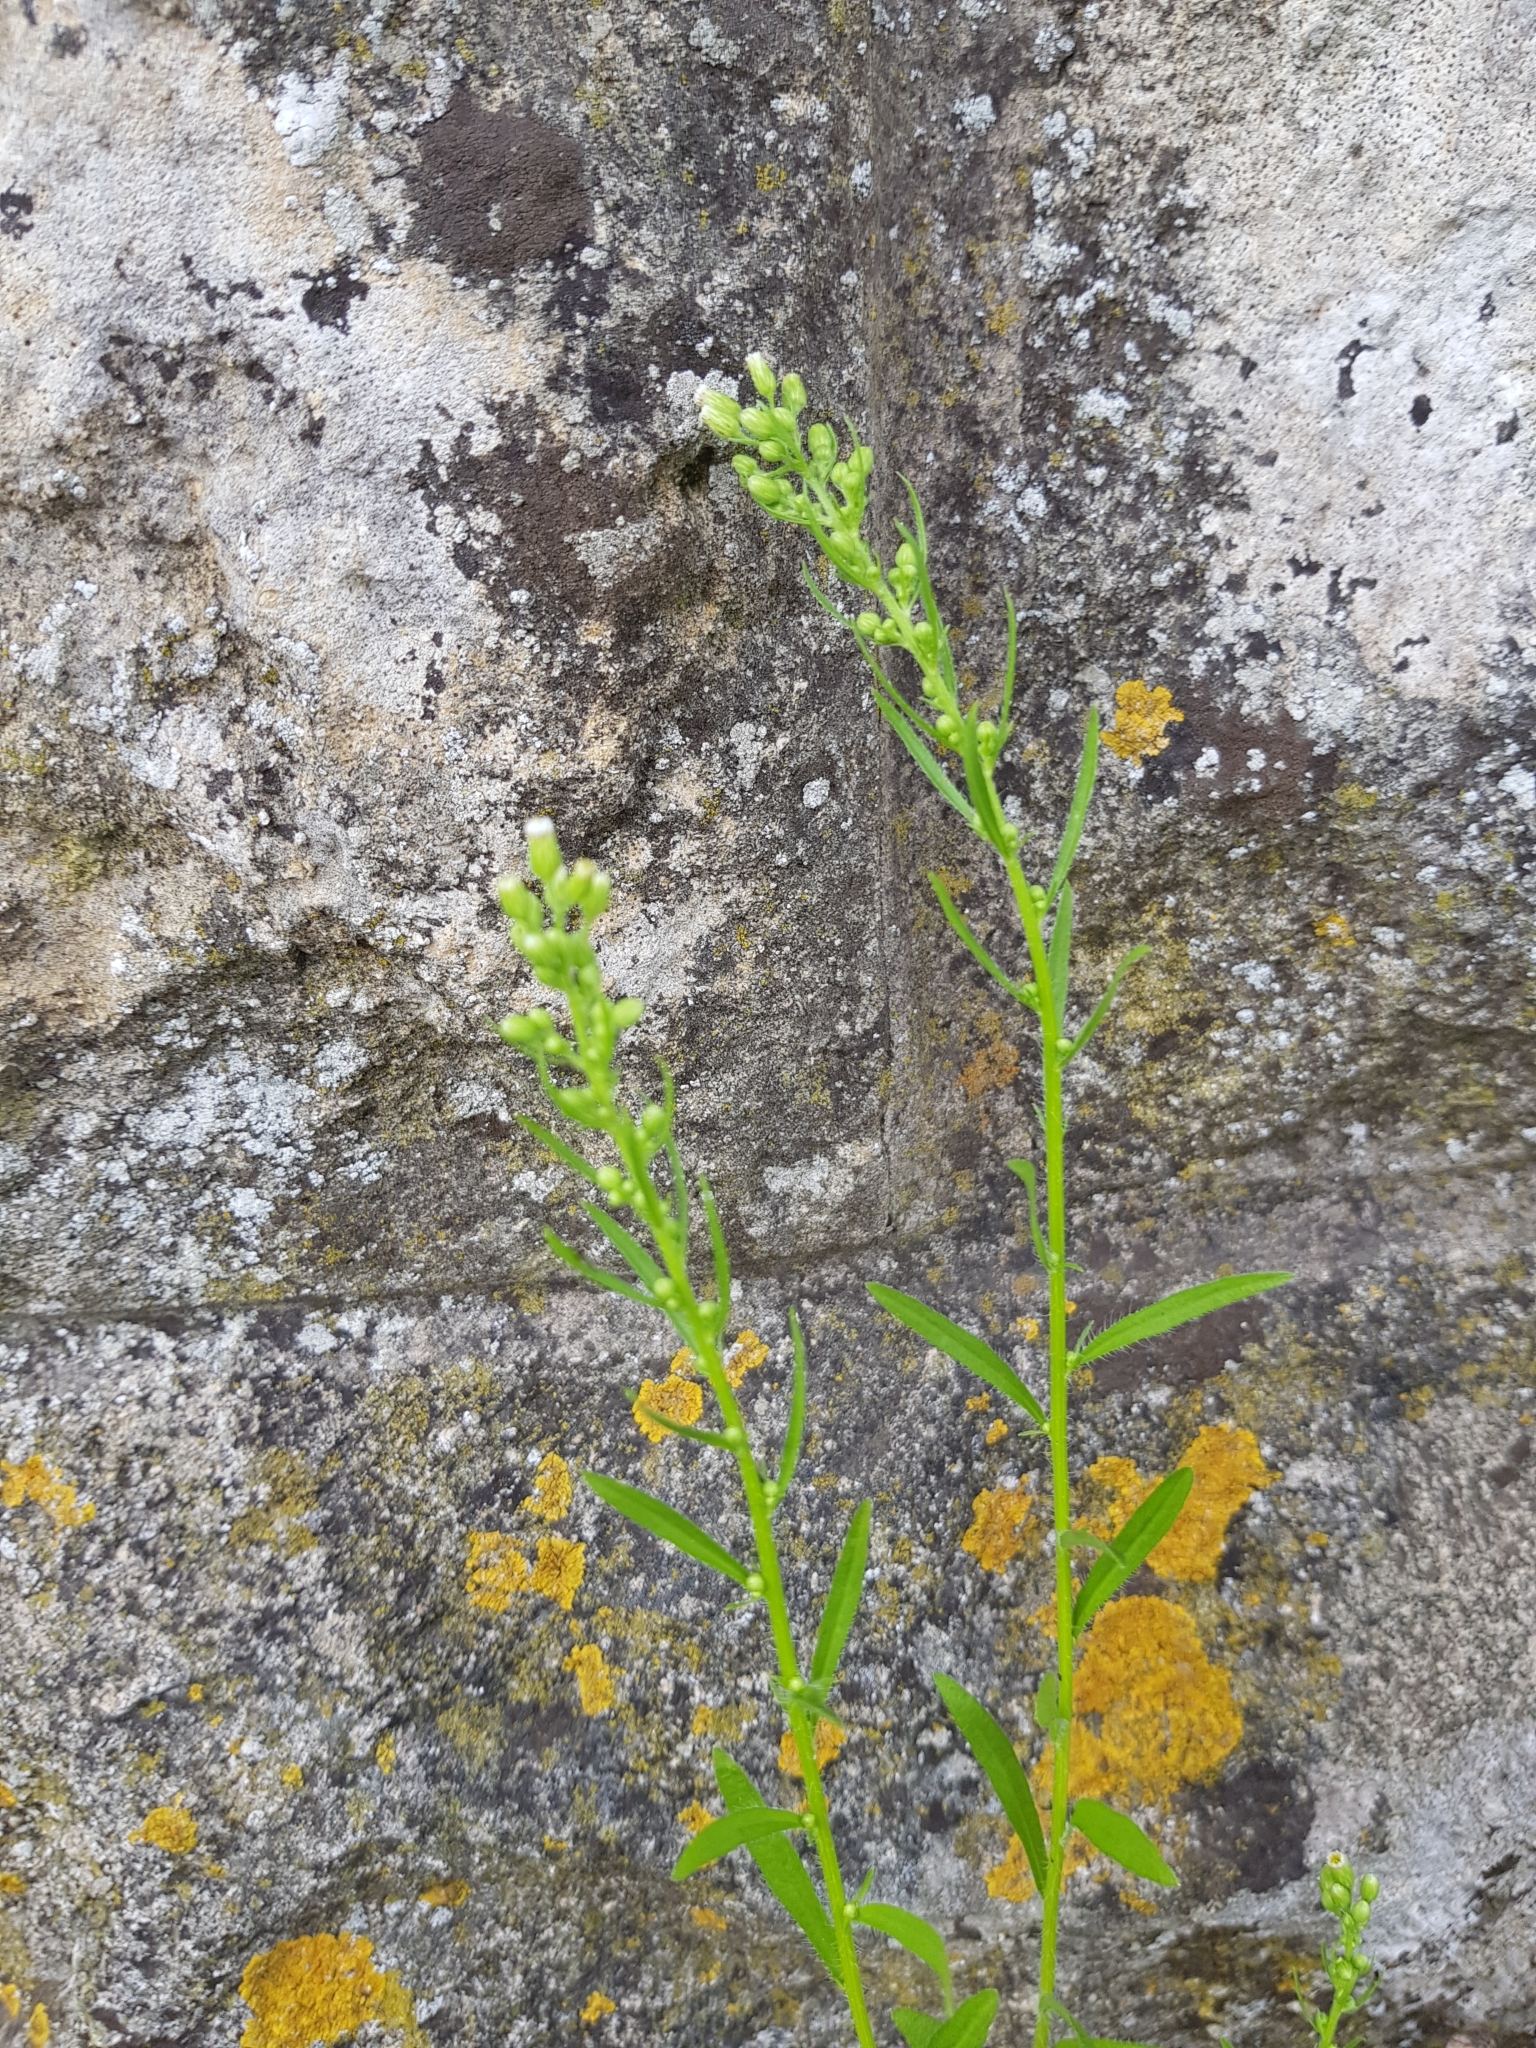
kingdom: Plantae
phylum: Tracheophyta
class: Magnoliopsida
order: Asterales
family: Asteraceae
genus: Erigeron
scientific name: Erigeron canadensis
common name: Canadian fleabane
